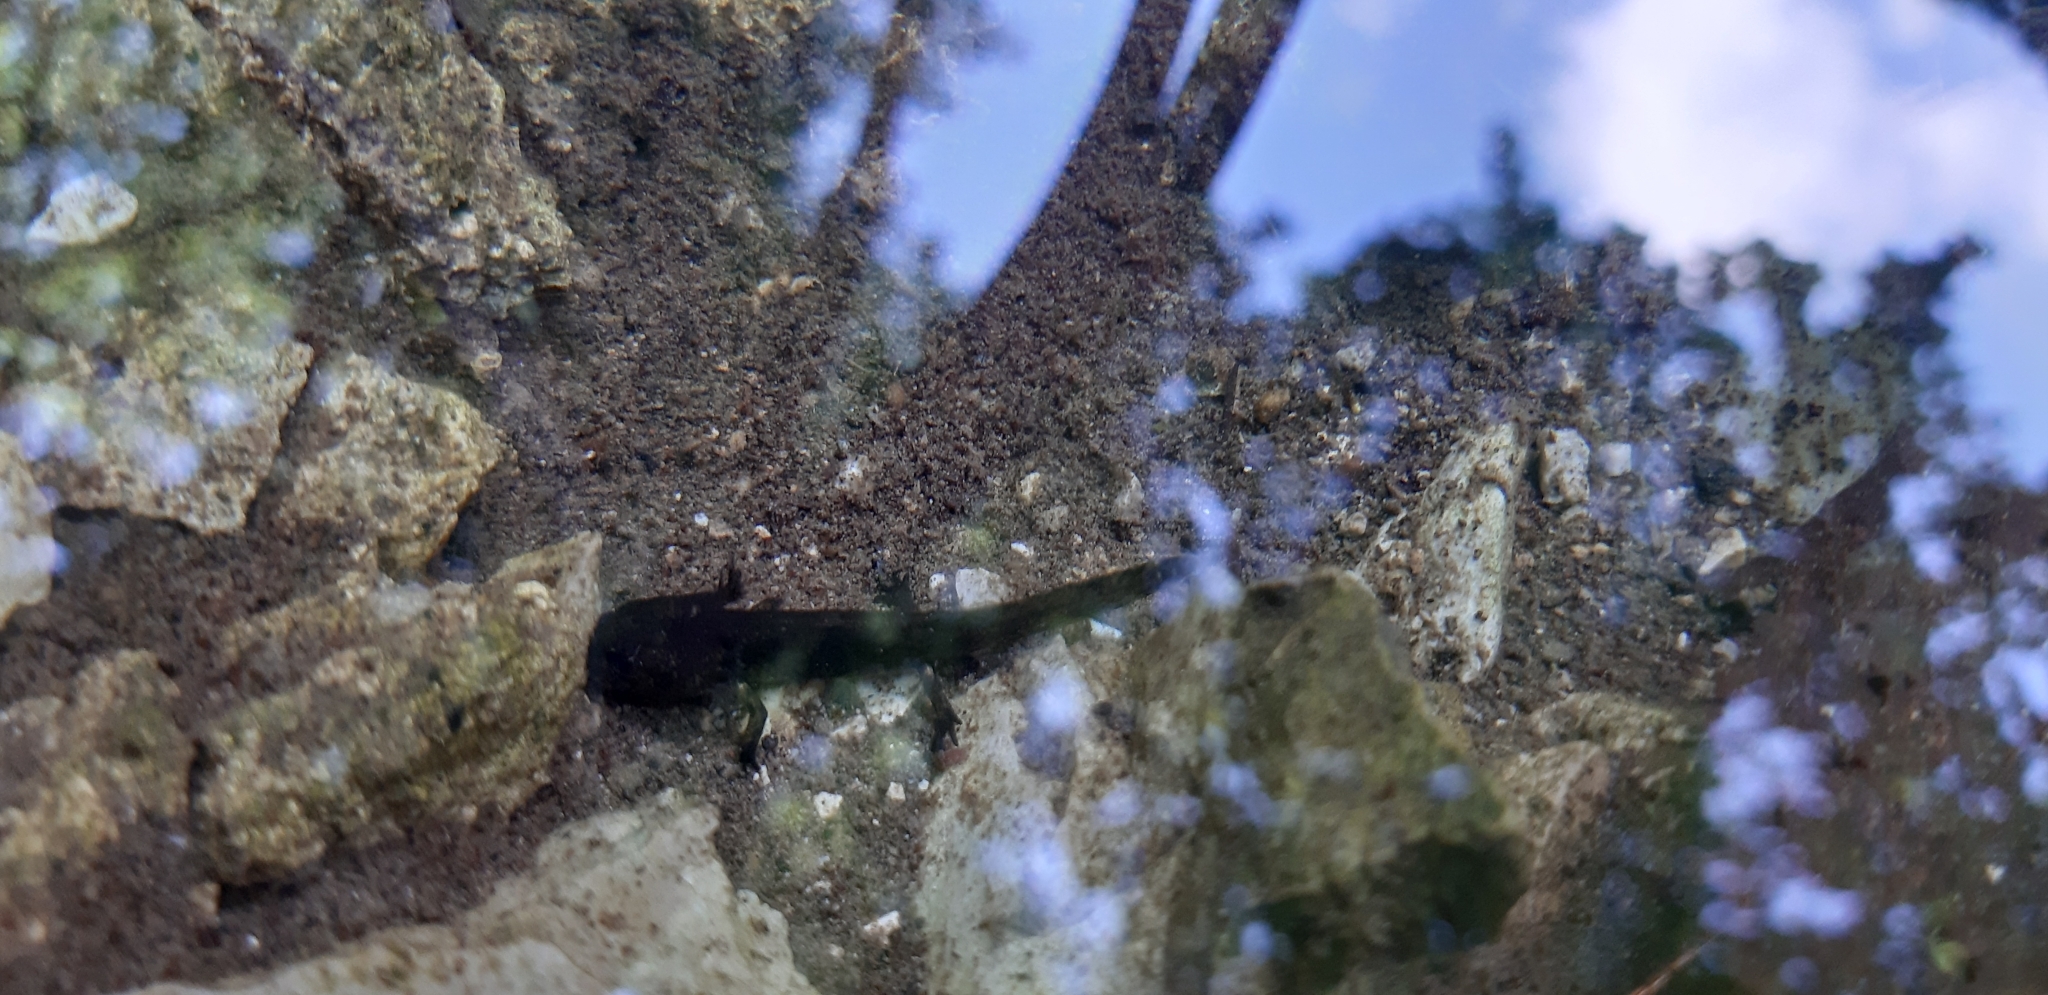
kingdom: Animalia
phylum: Chordata
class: Amphibia
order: Caudata
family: Salamandridae
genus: Salamandra
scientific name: Salamandra salamandra
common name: Fire salamander
